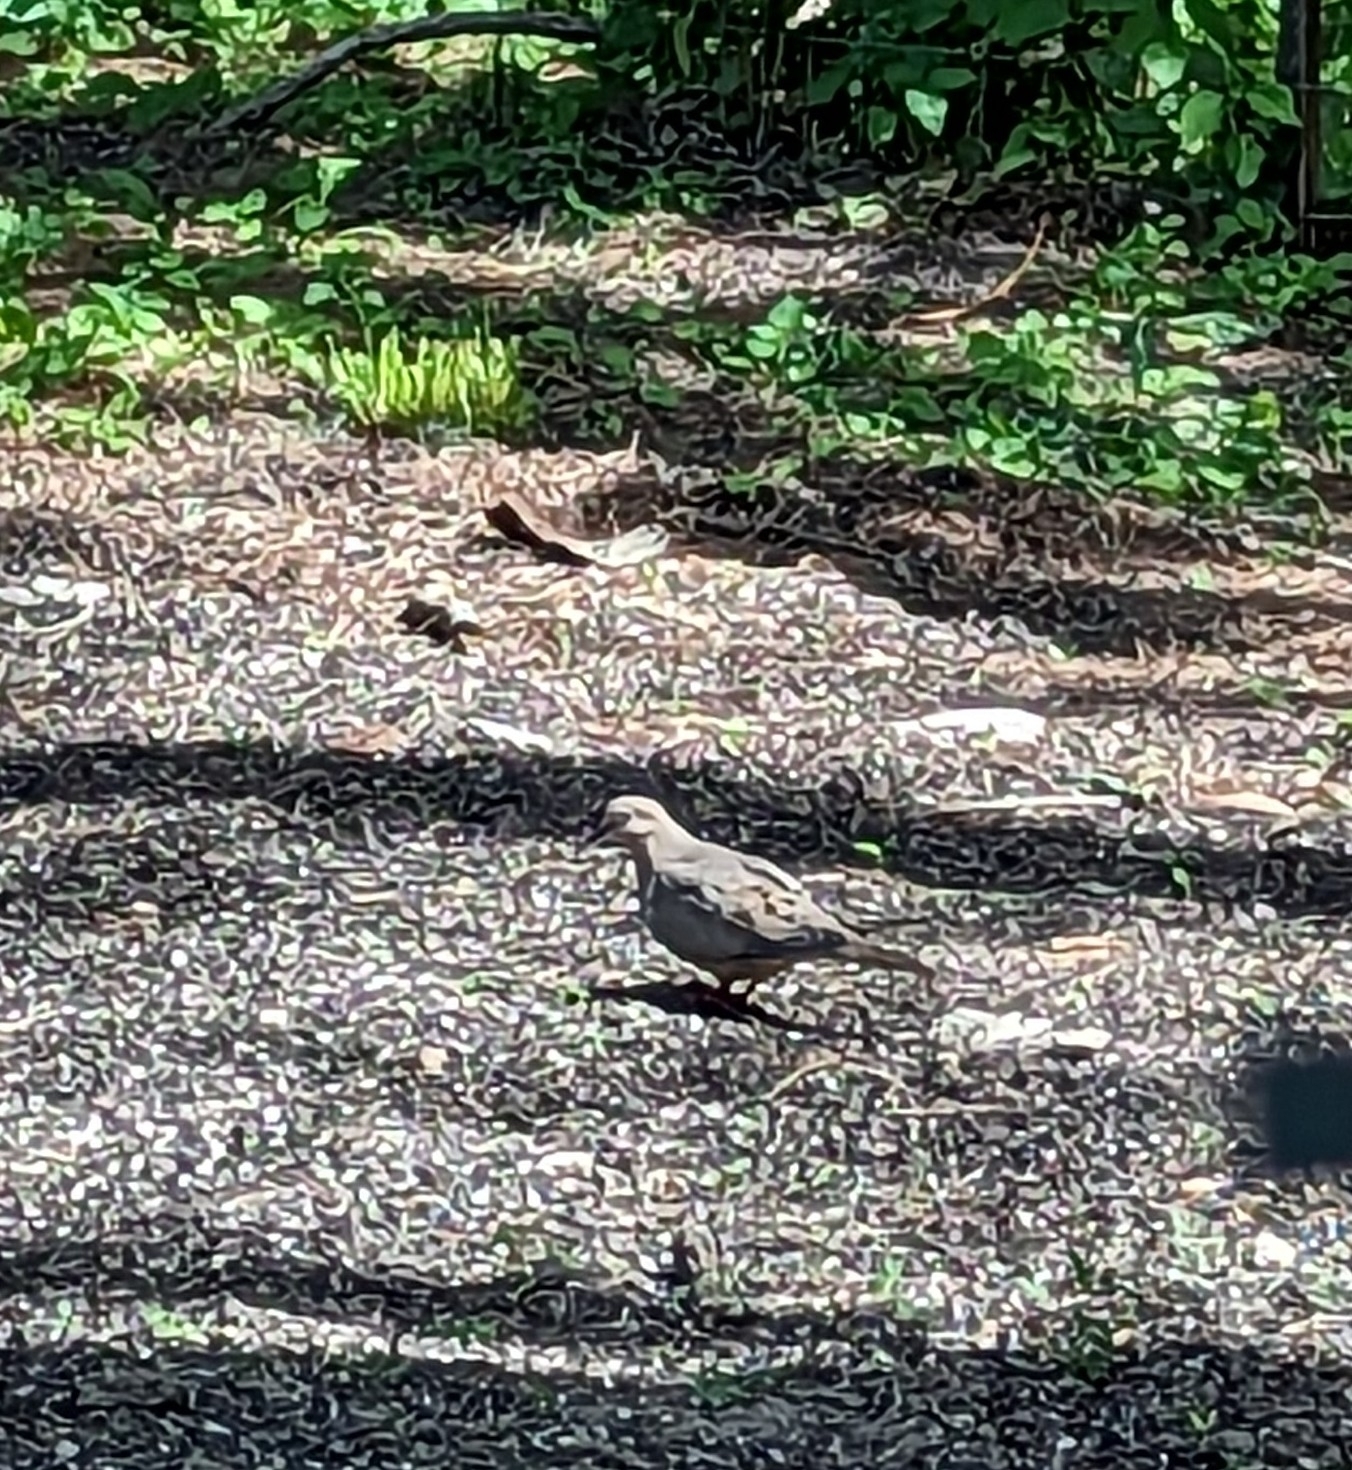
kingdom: Animalia
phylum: Chordata
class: Aves
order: Columbiformes
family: Columbidae
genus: Zenaida
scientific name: Zenaida macroura
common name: Mourning dove
